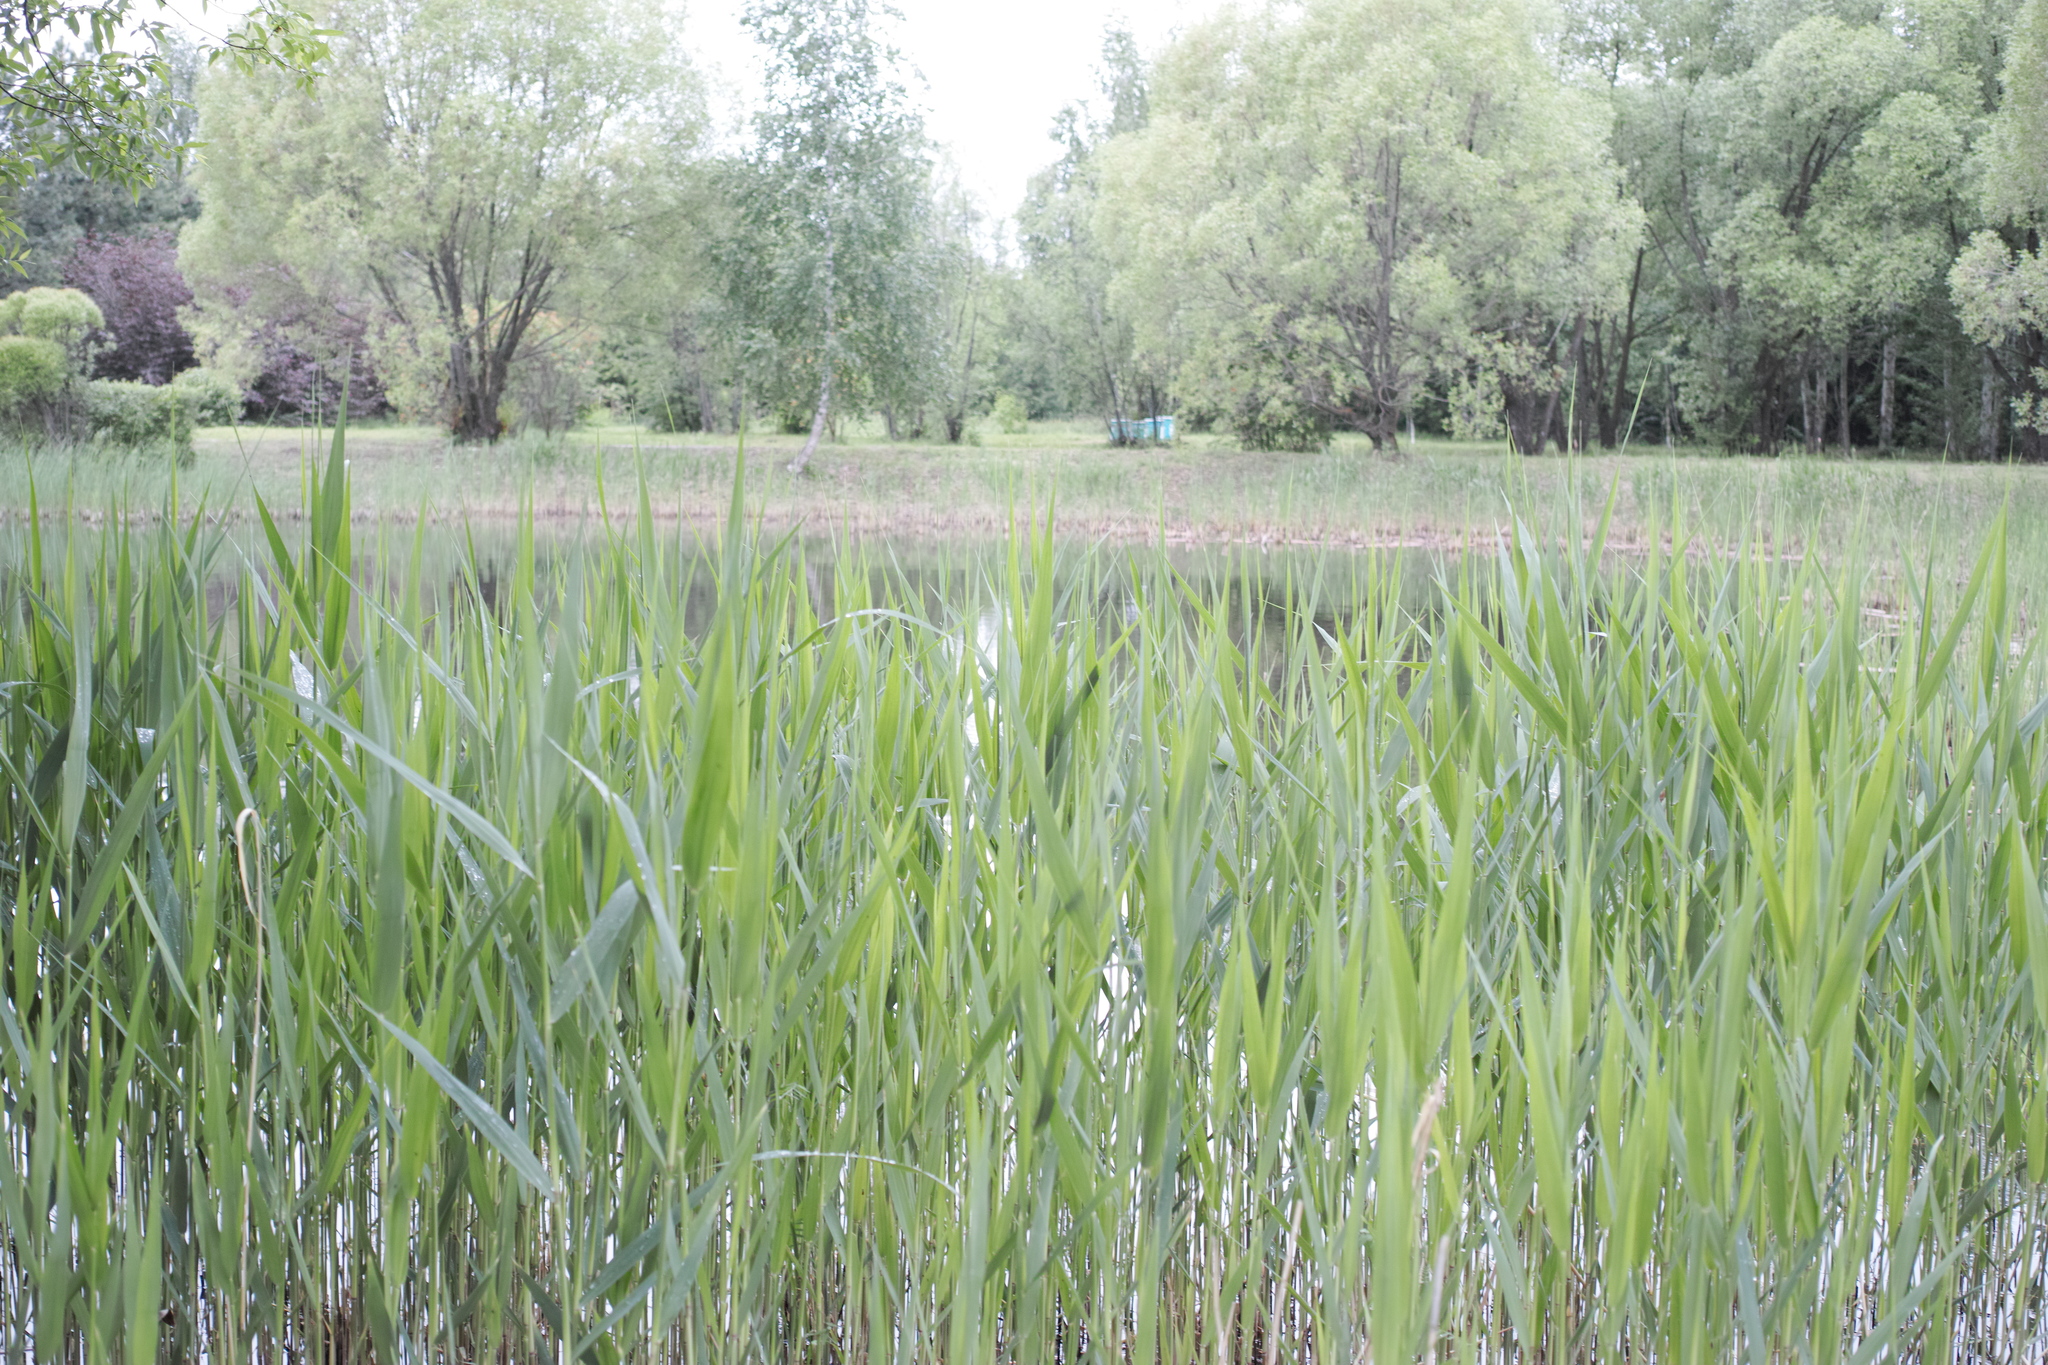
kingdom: Plantae
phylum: Tracheophyta
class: Liliopsida
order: Poales
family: Poaceae
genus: Phragmites
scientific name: Phragmites australis
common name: Common reed
